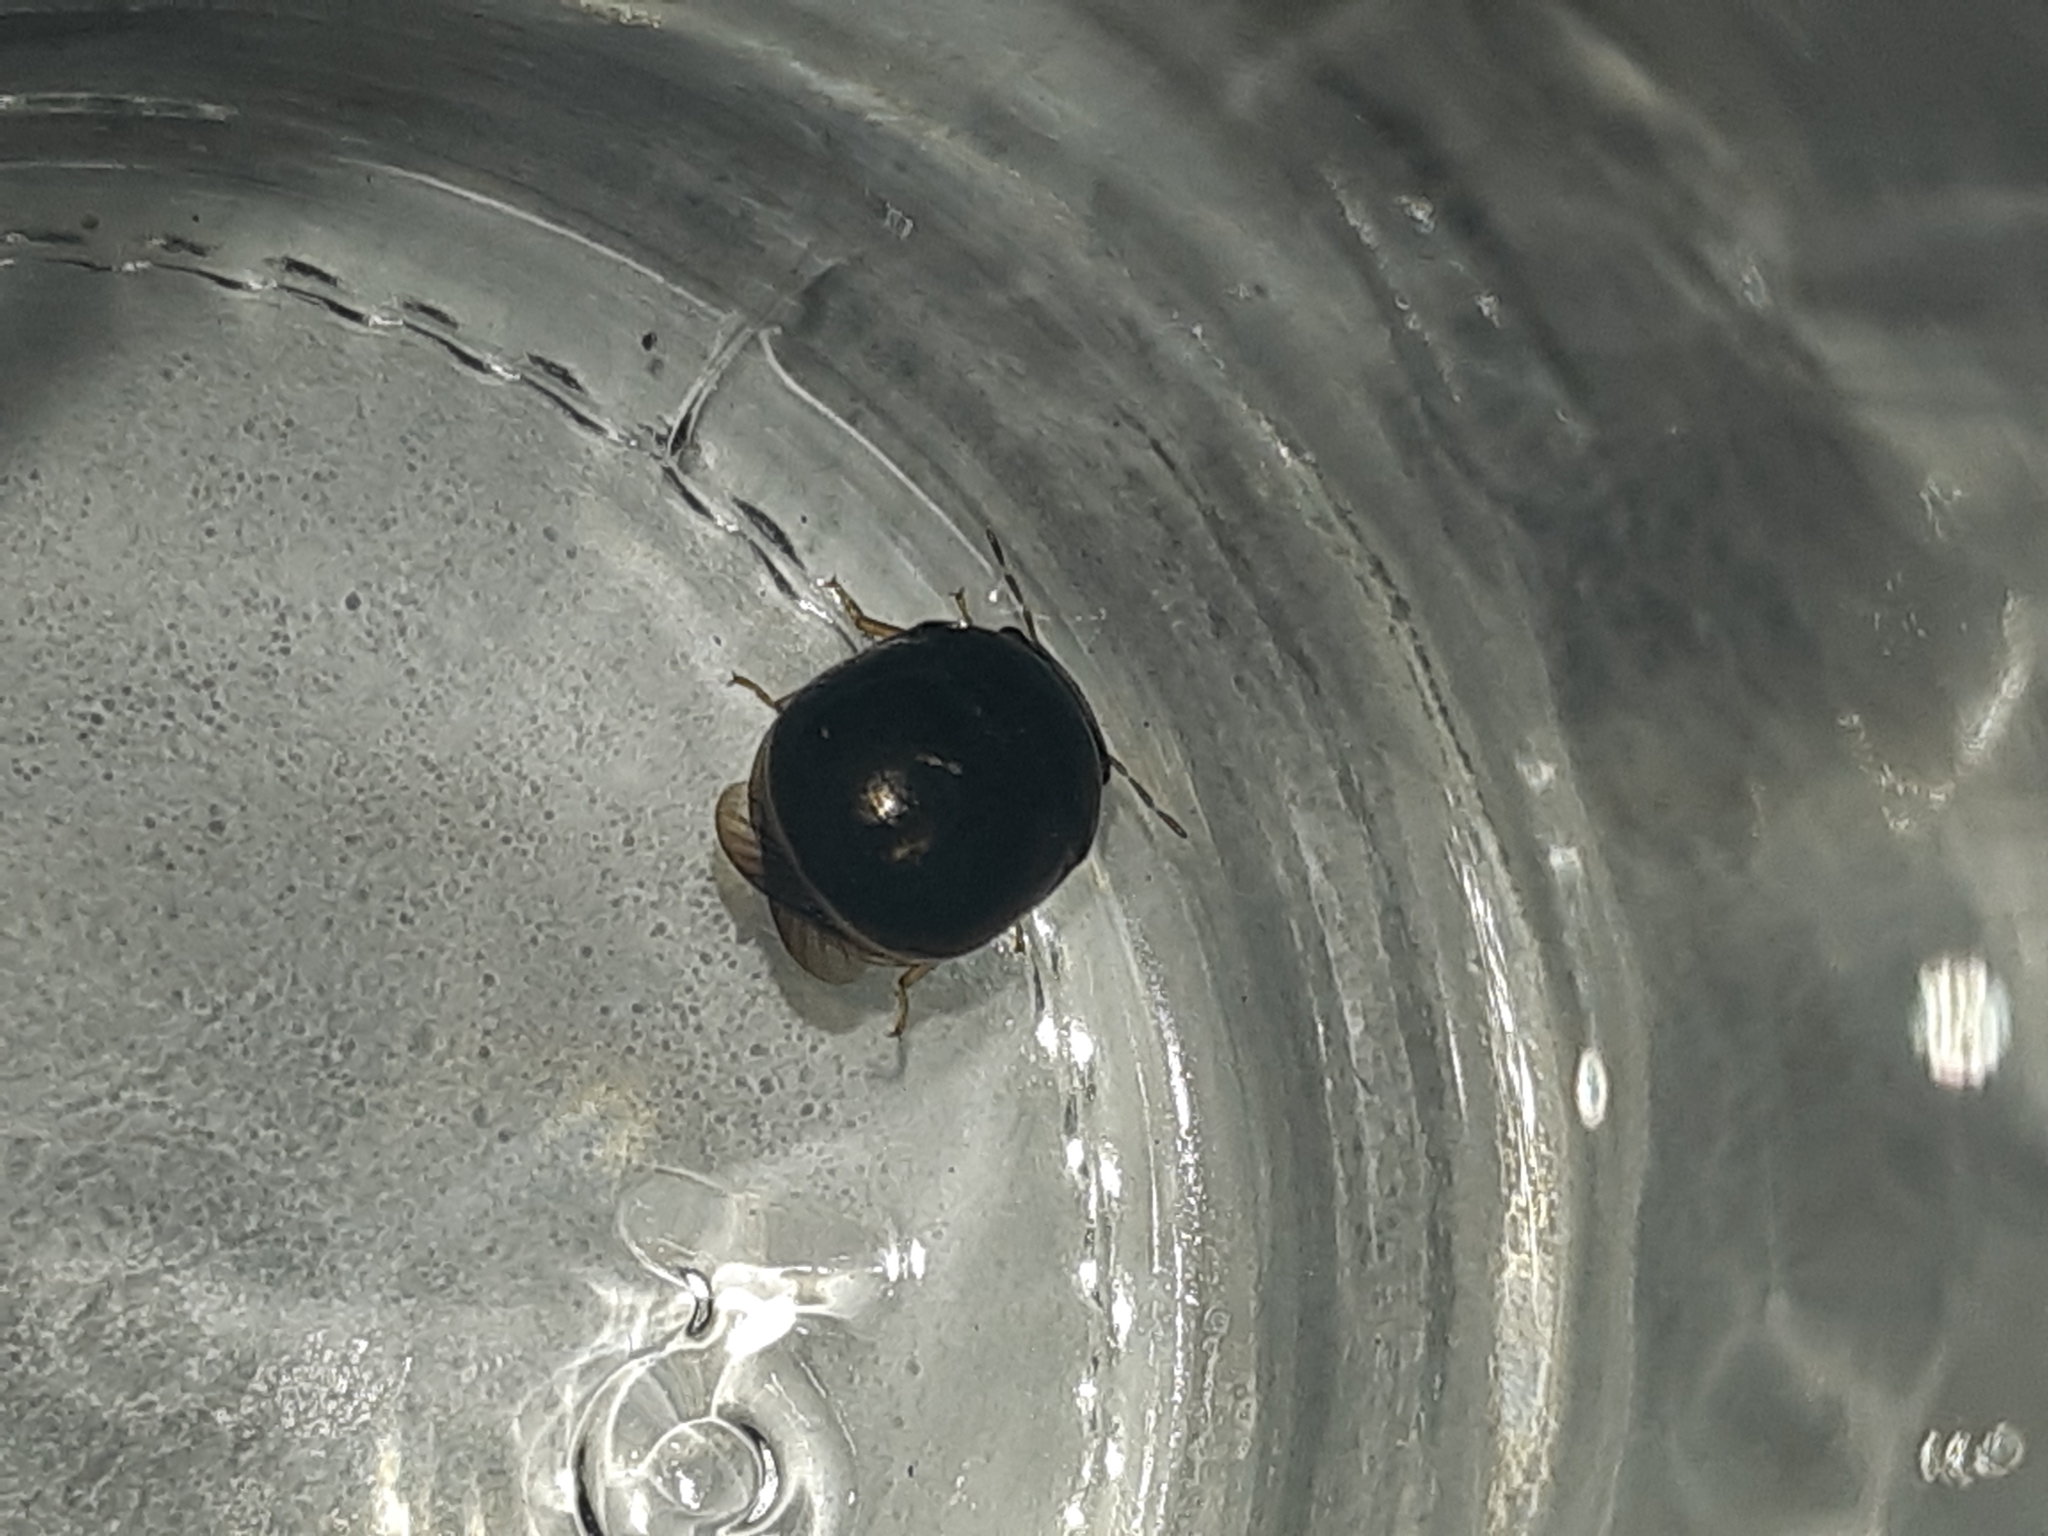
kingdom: Animalia
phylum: Arthropoda
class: Insecta
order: Hemiptera
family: Plataspidae
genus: Brachyplatys
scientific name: Brachyplatys subaeneus
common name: Black bean bug
